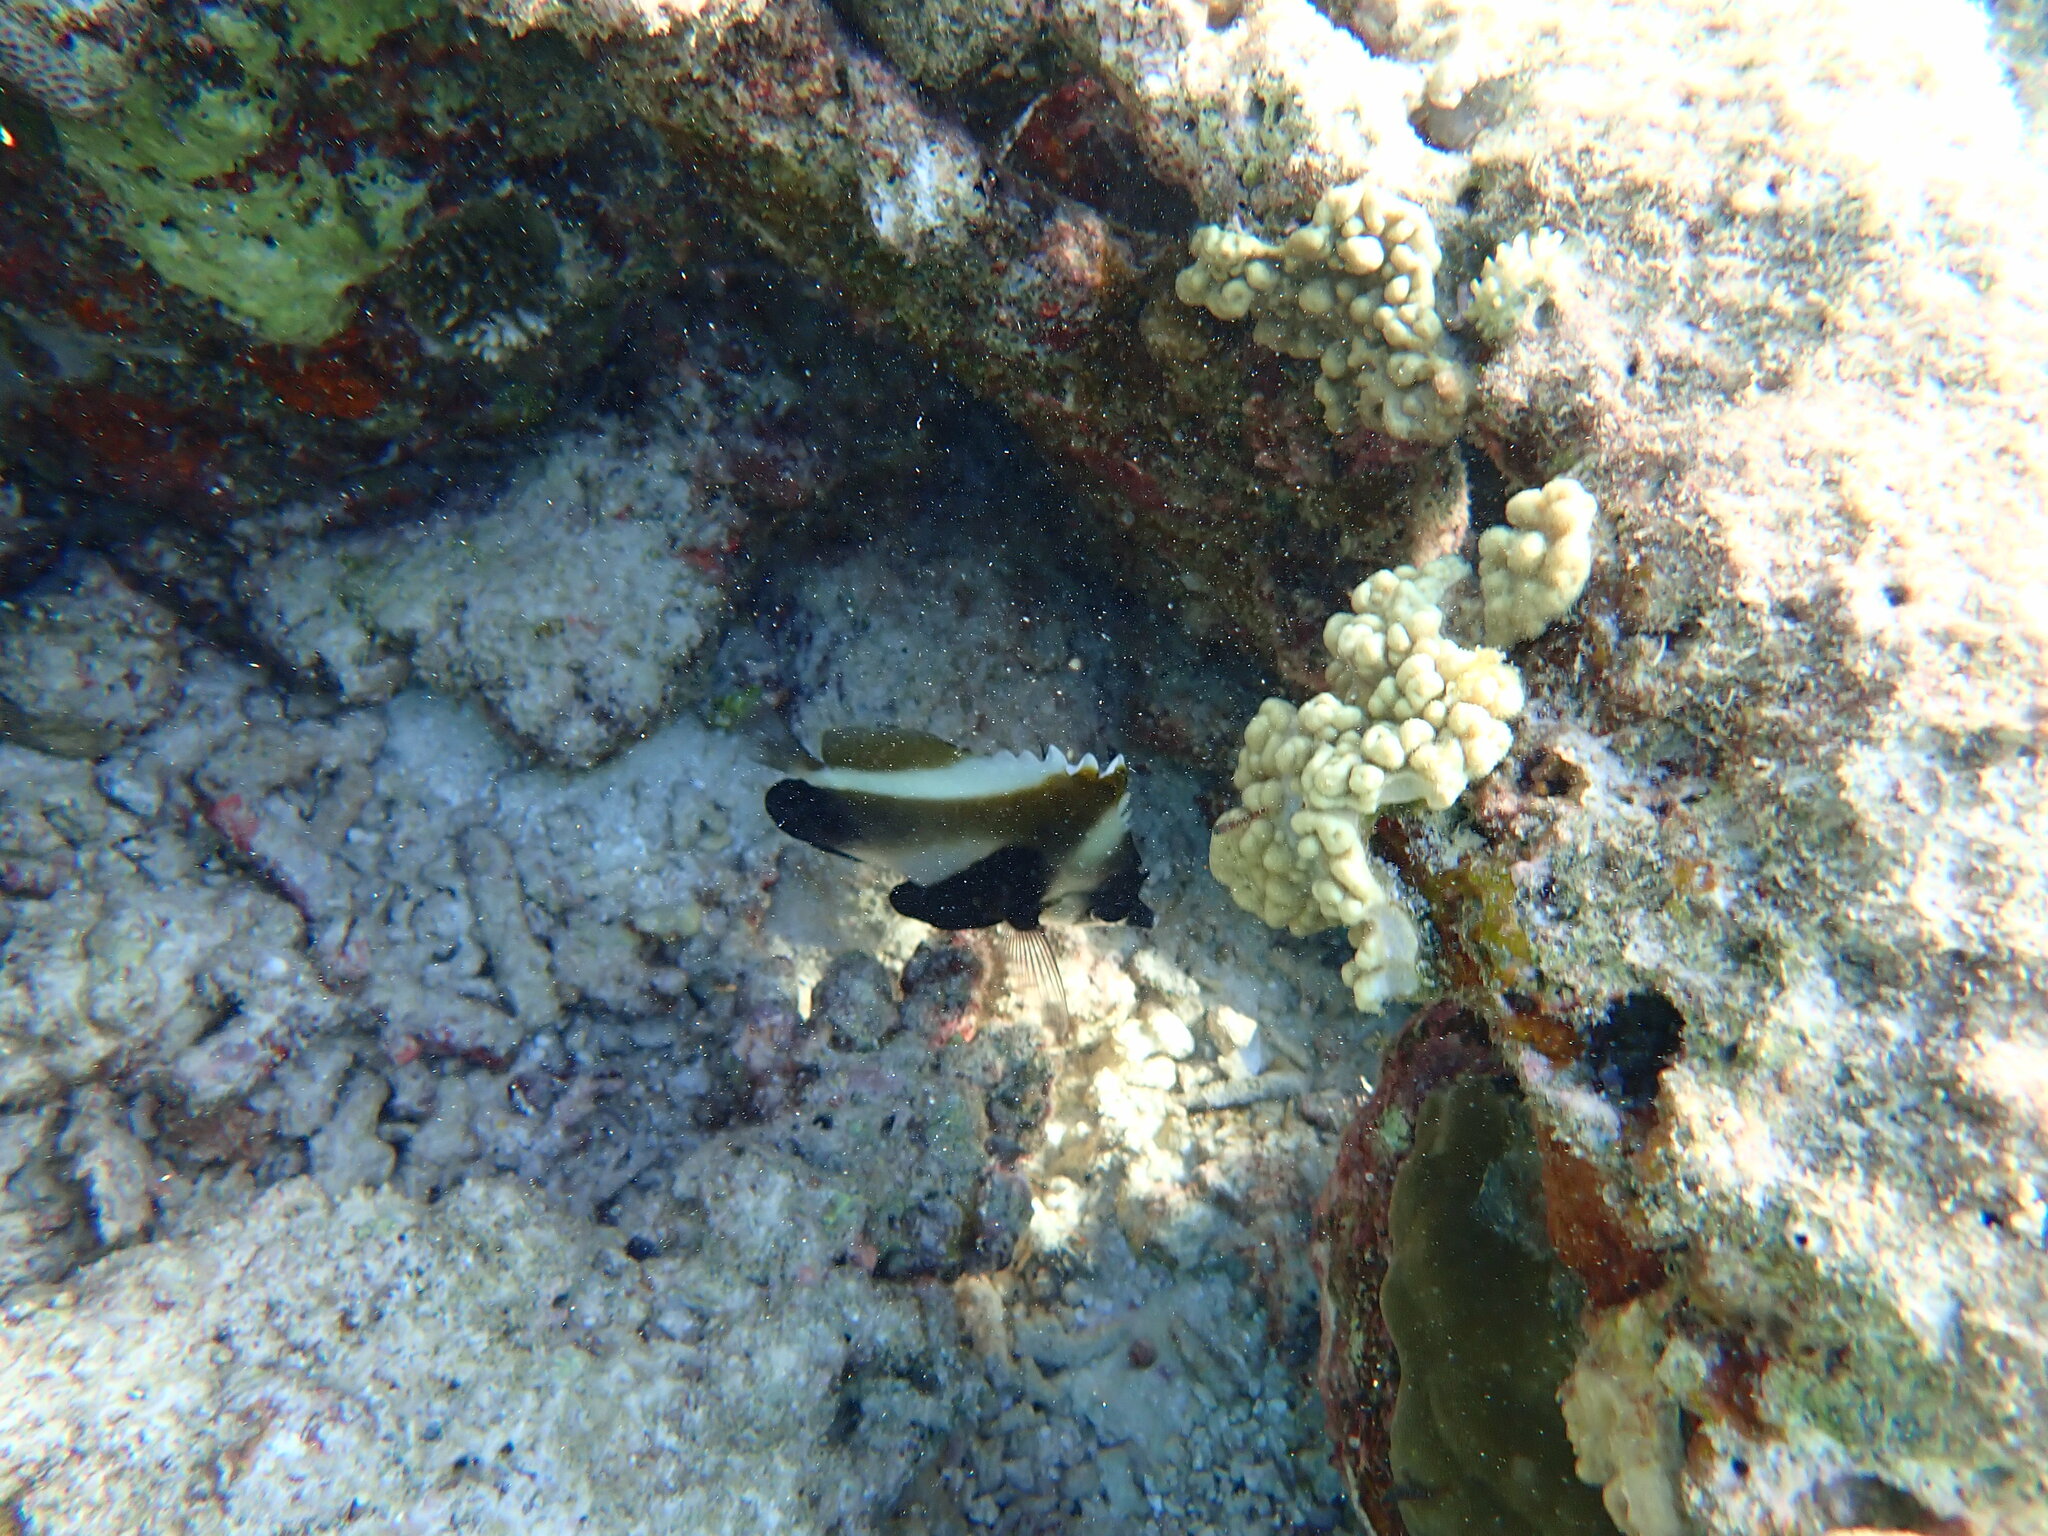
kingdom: Animalia
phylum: Chordata
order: Perciformes
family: Chaetodontidae
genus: Heniochus
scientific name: Heniochus pleurotaenia
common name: Indian ocean bannerfish
